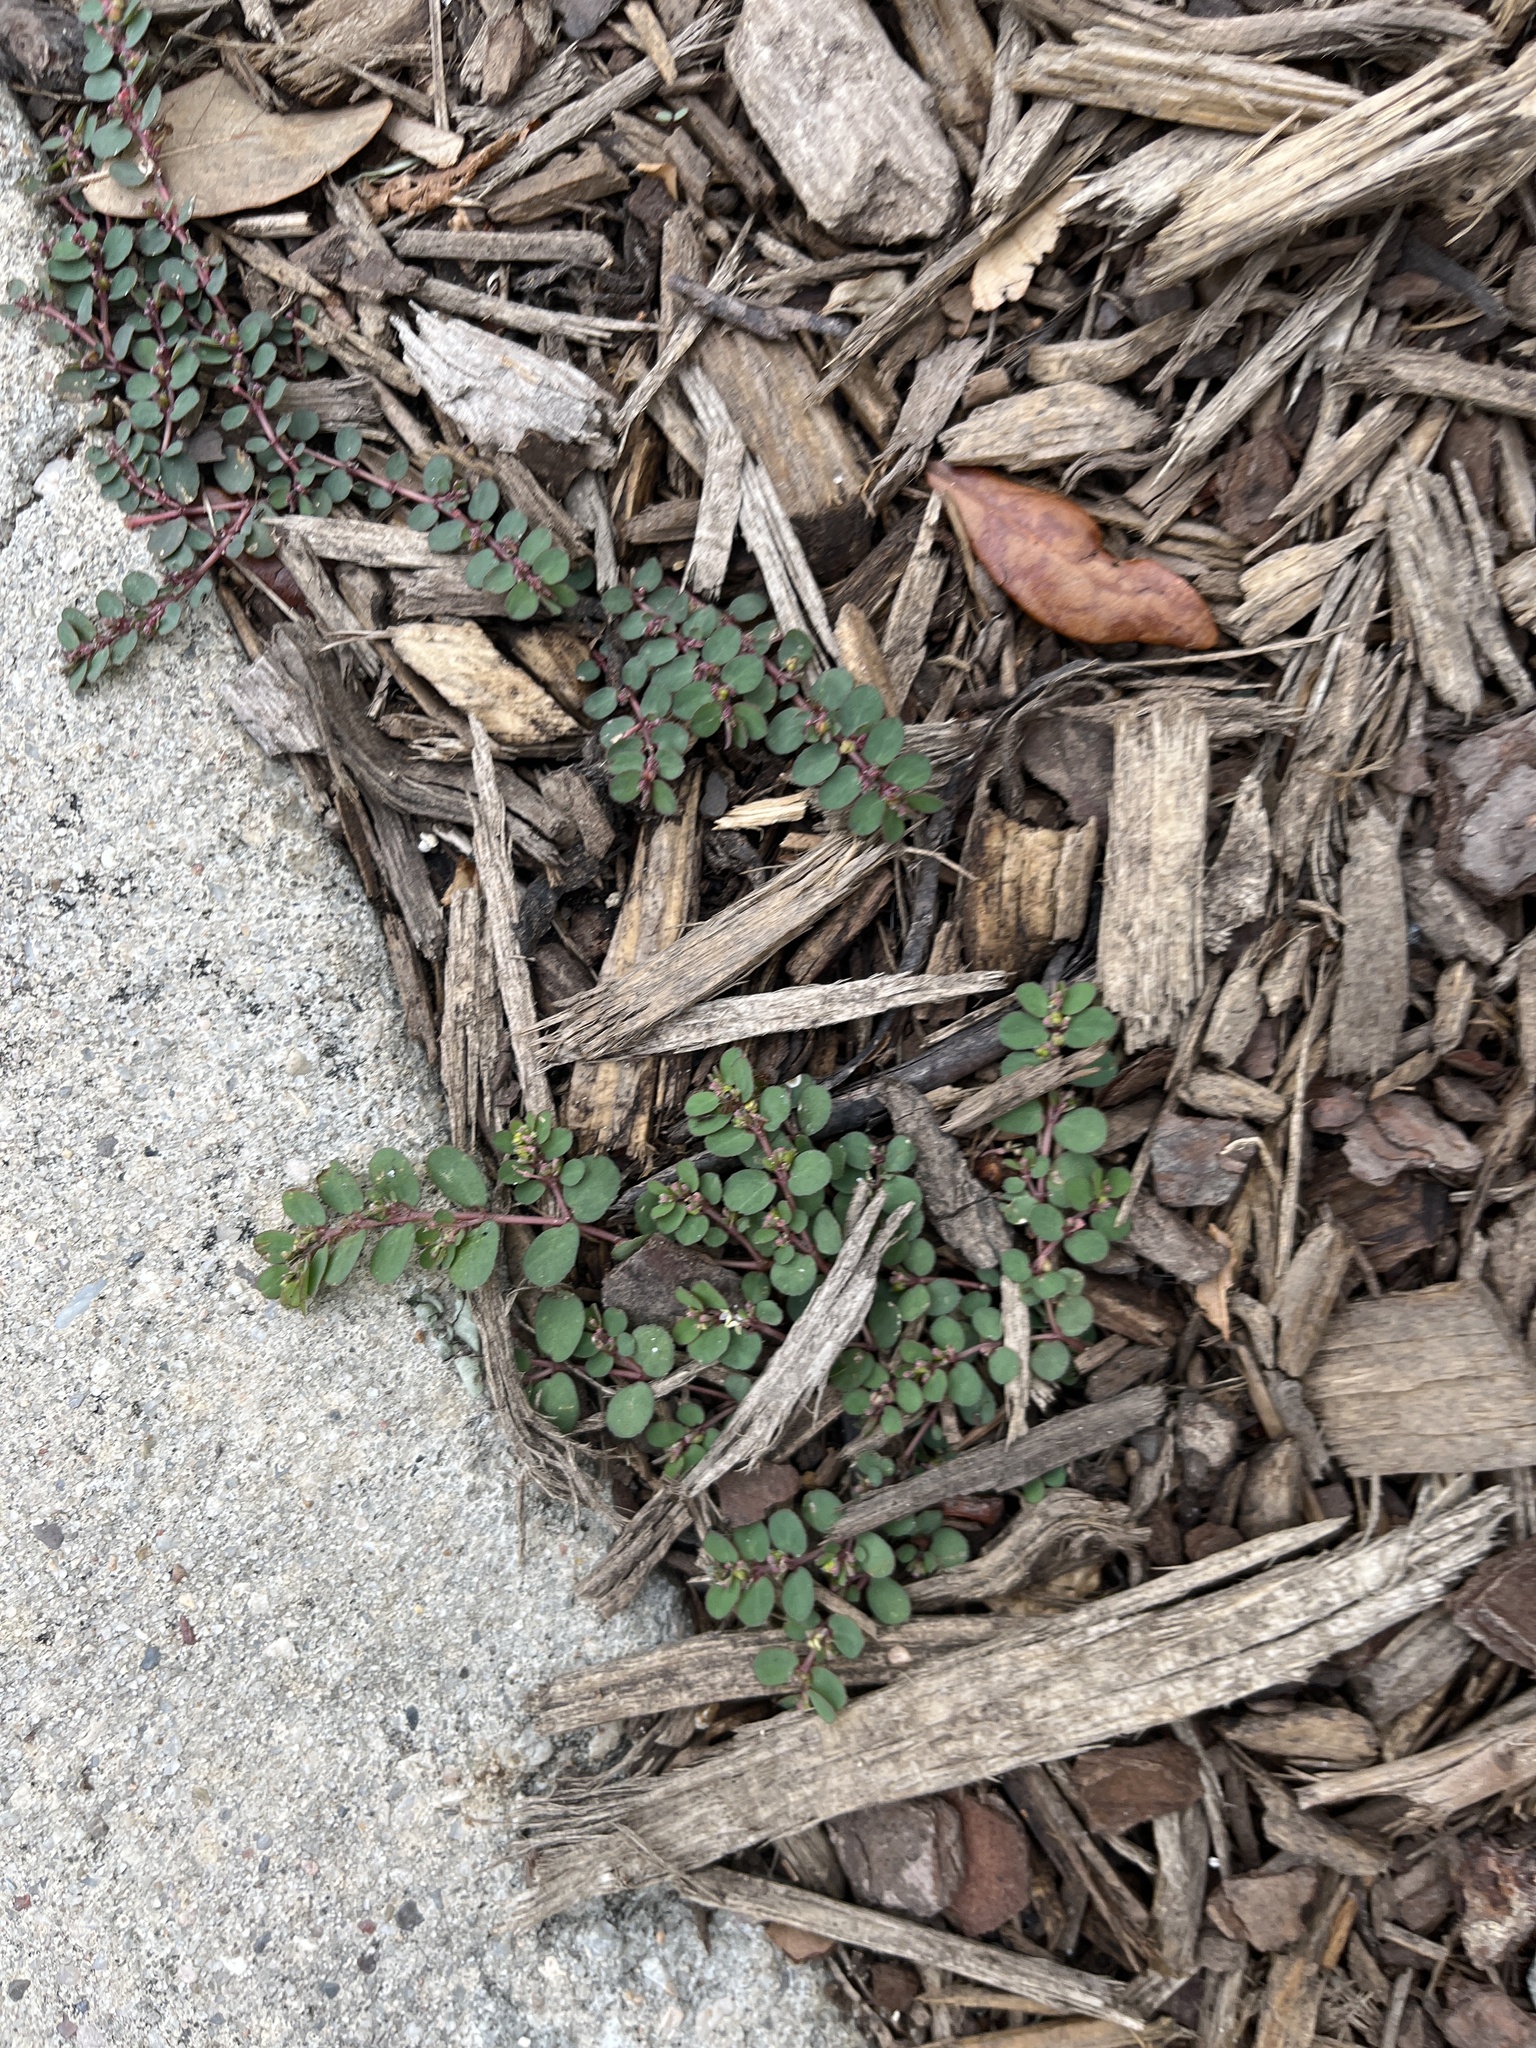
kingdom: Plantae
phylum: Tracheophyta
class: Magnoliopsida
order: Malpighiales
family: Euphorbiaceae
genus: Euphorbia
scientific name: Euphorbia prostrata
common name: Prostrate sandmat
